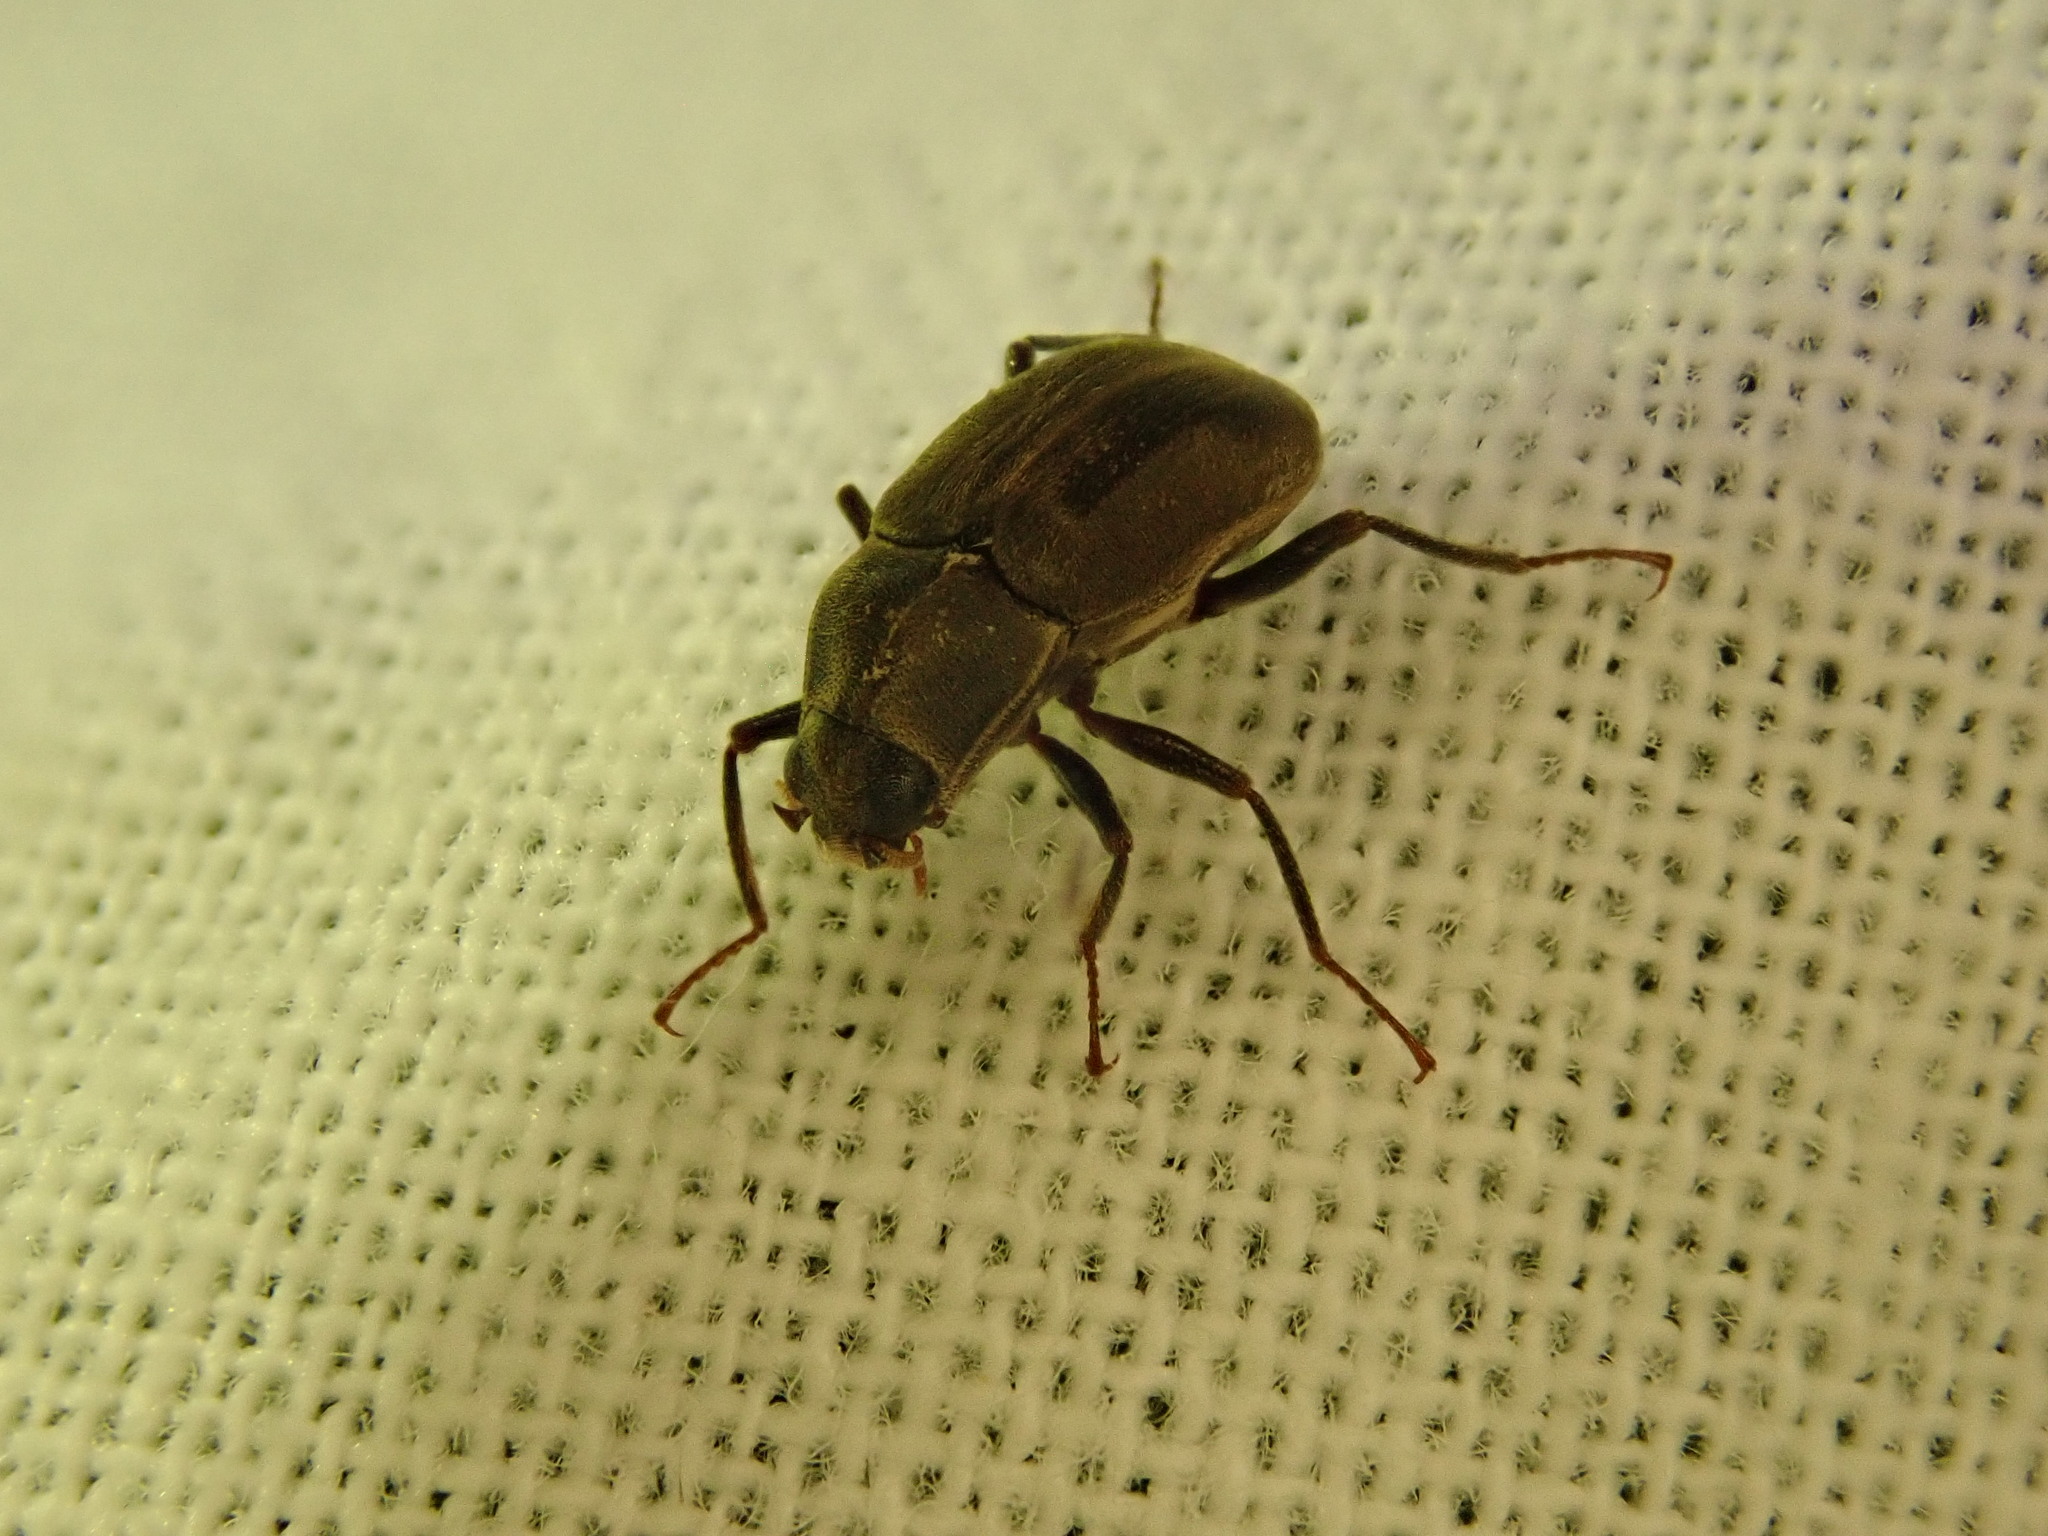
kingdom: Animalia
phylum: Arthropoda
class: Insecta
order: Coleoptera
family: Dryopidae
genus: Helichus
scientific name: Helichus lithophilus
